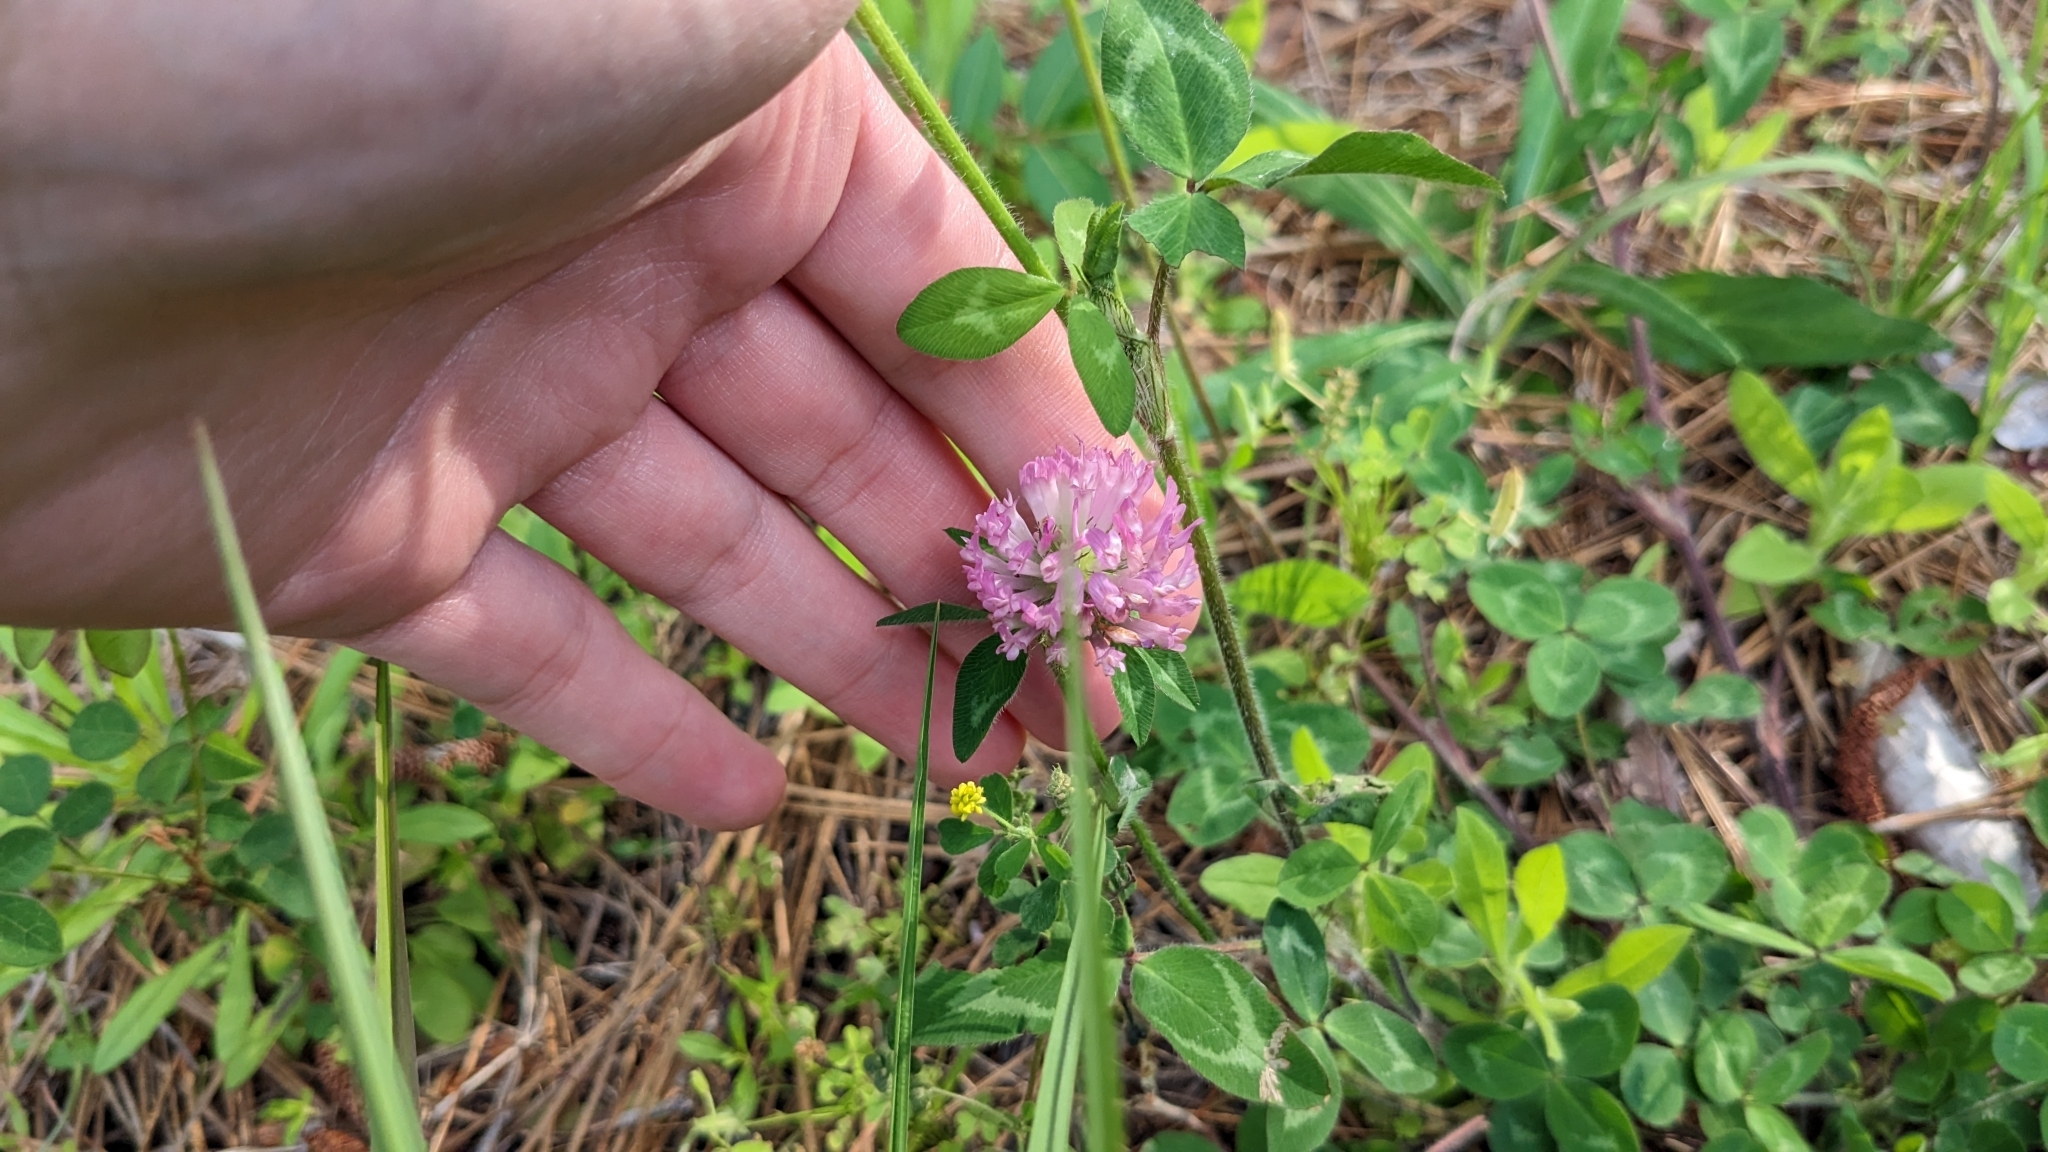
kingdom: Plantae
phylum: Tracheophyta
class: Magnoliopsida
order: Fabales
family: Fabaceae
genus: Trifolium
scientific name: Trifolium pratense
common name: Red clover
